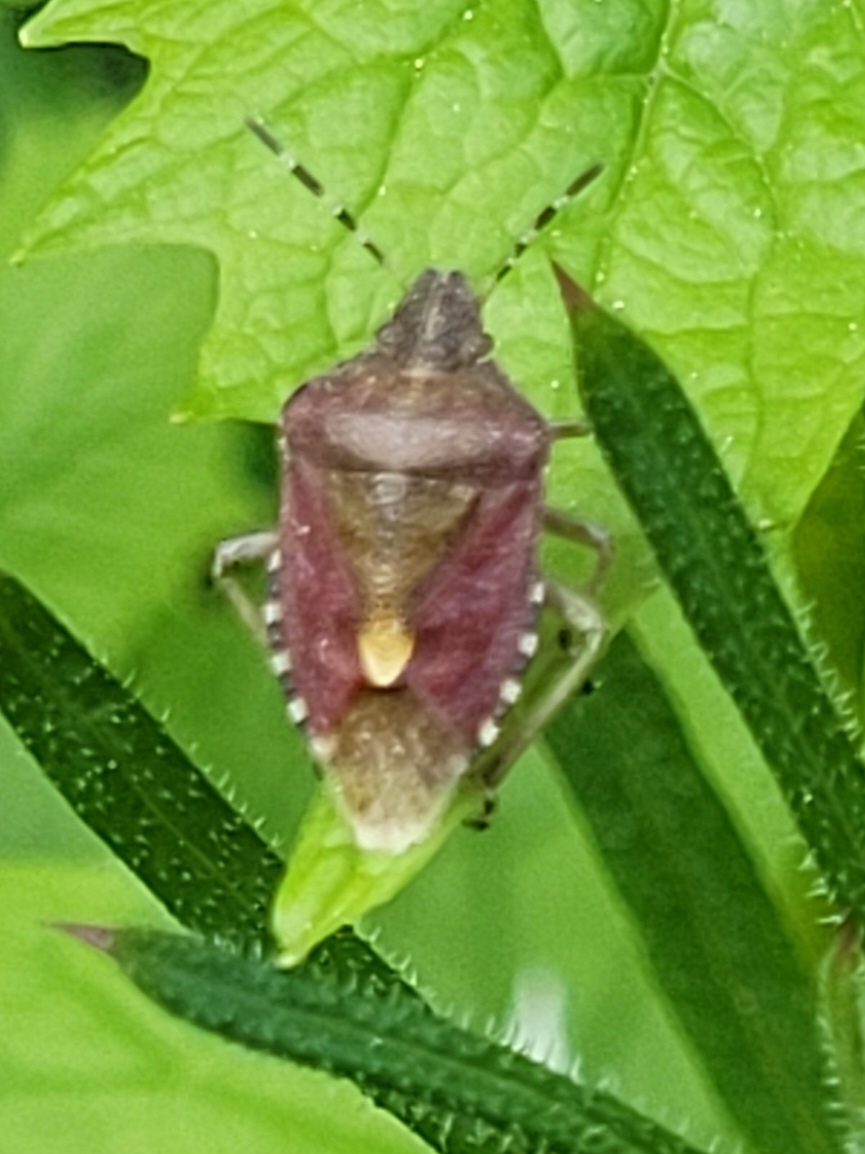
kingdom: Animalia
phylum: Arthropoda
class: Insecta
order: Hemiptera
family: Pentatomidae
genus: Dolycoris
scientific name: Dolycoris baccarum
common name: Sloe bug
